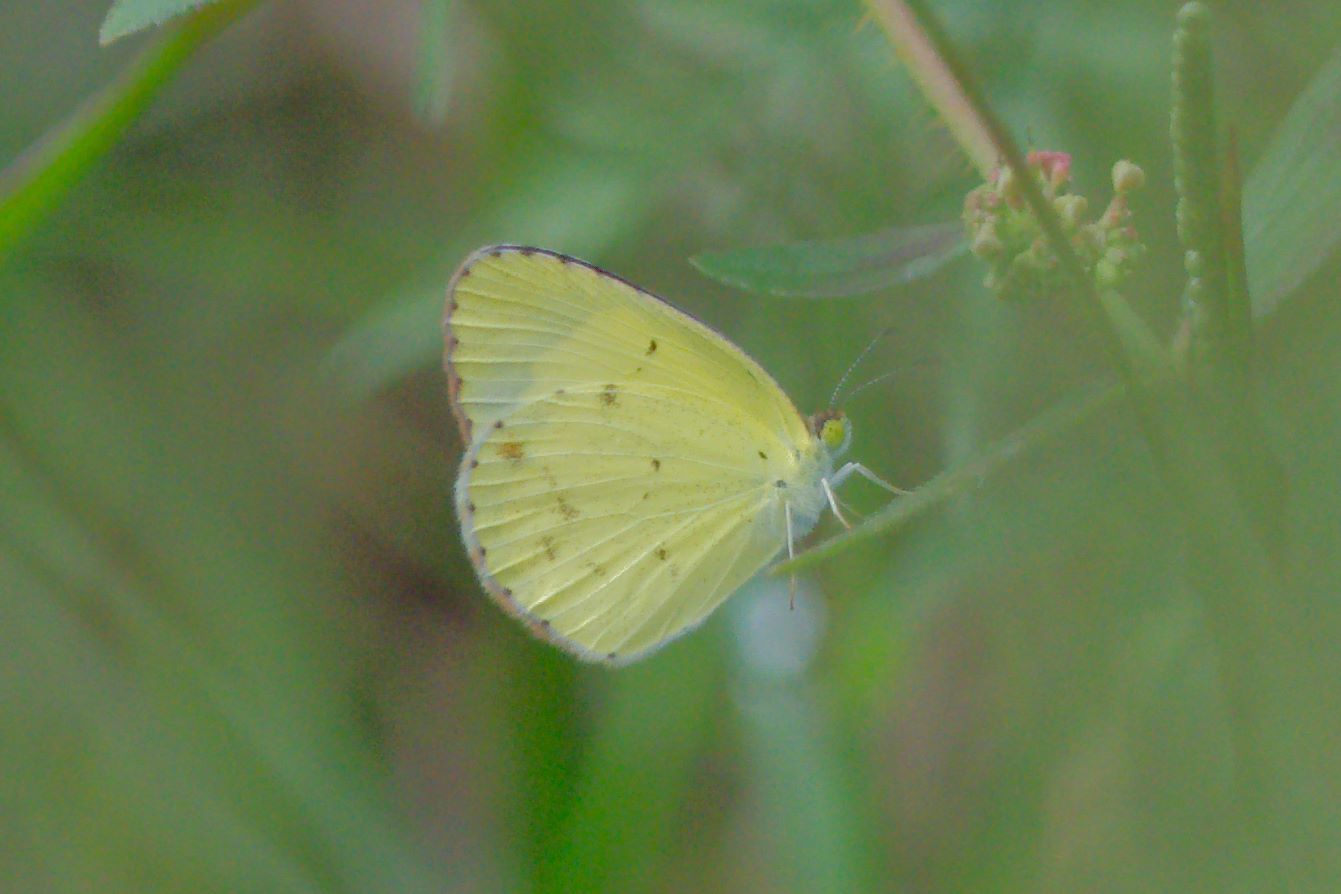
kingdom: Animalia
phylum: Arthropoda
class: Insecta
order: Lepidoptera
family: Pieridae
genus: Pyrisitia
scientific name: Pyrisitia lisa
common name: Little yellow
